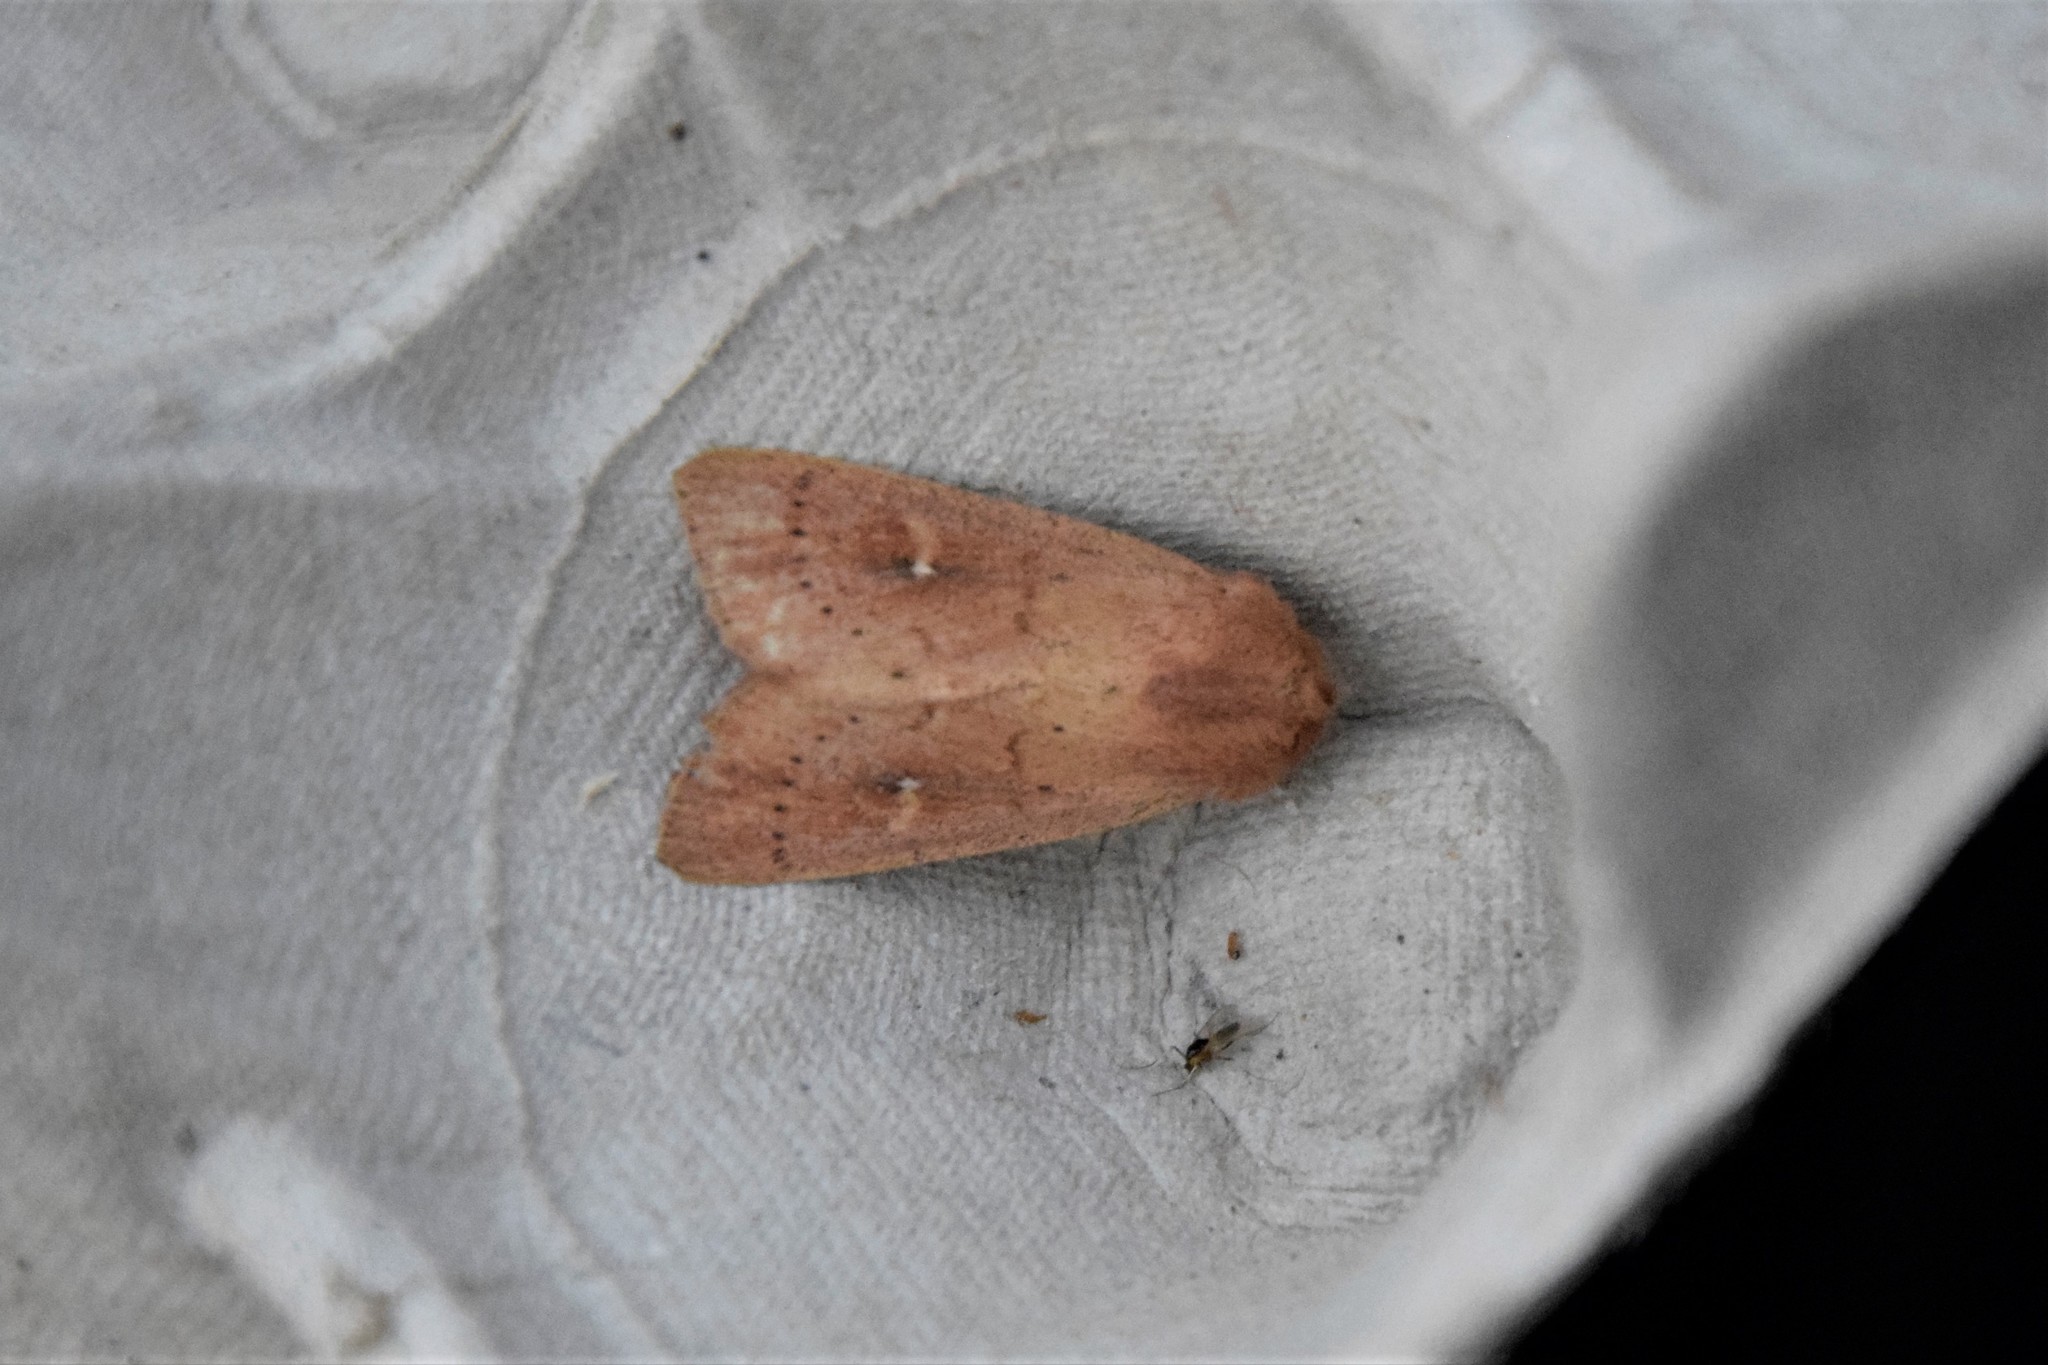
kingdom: Animalia
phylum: Arthropoda
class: Insecta
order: Lepidoptera
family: Noctuidae
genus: Mythimna
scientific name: Mythimna ferrago
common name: Clay
